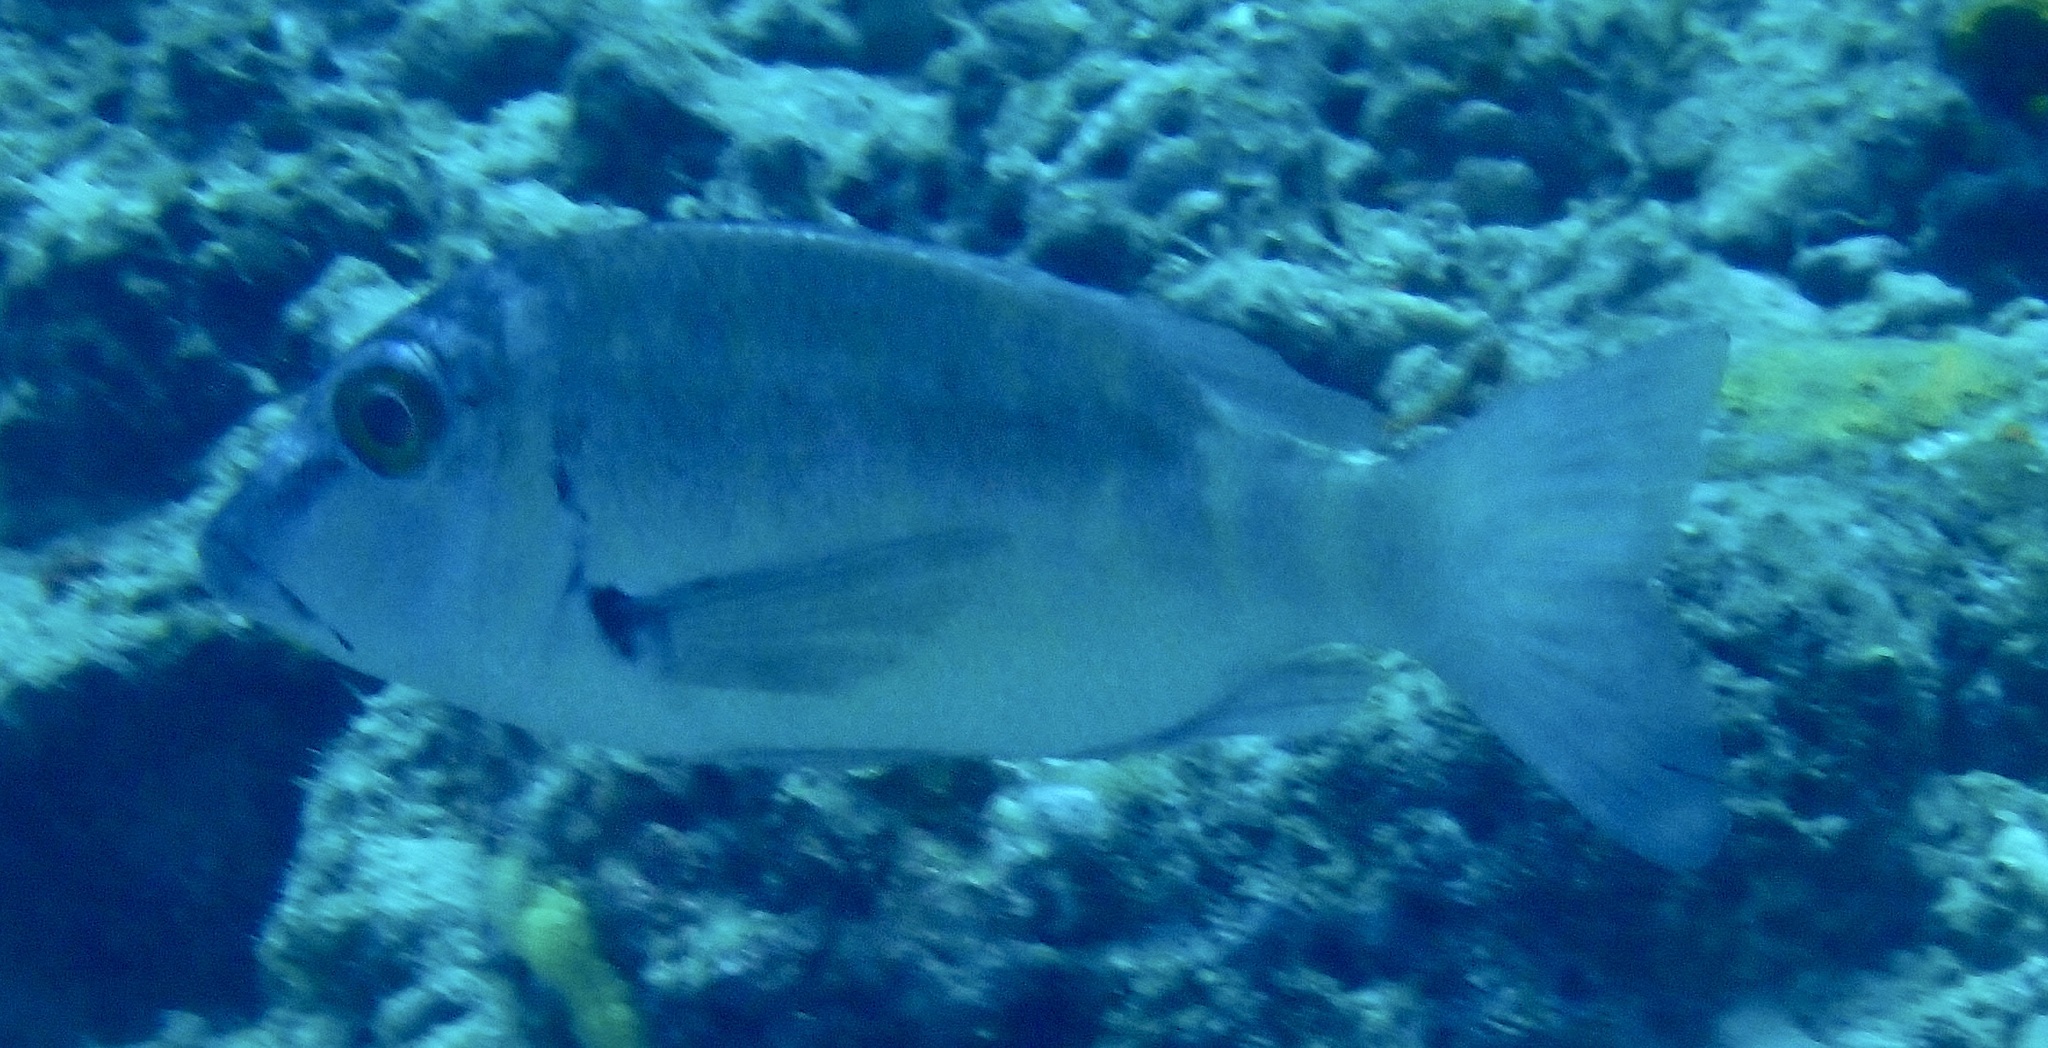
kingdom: Animalia
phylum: Chordata
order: Perciformes
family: Lethrinidae
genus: Lethrinus
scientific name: Lethrinus erythropterus
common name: Longfin emperor
